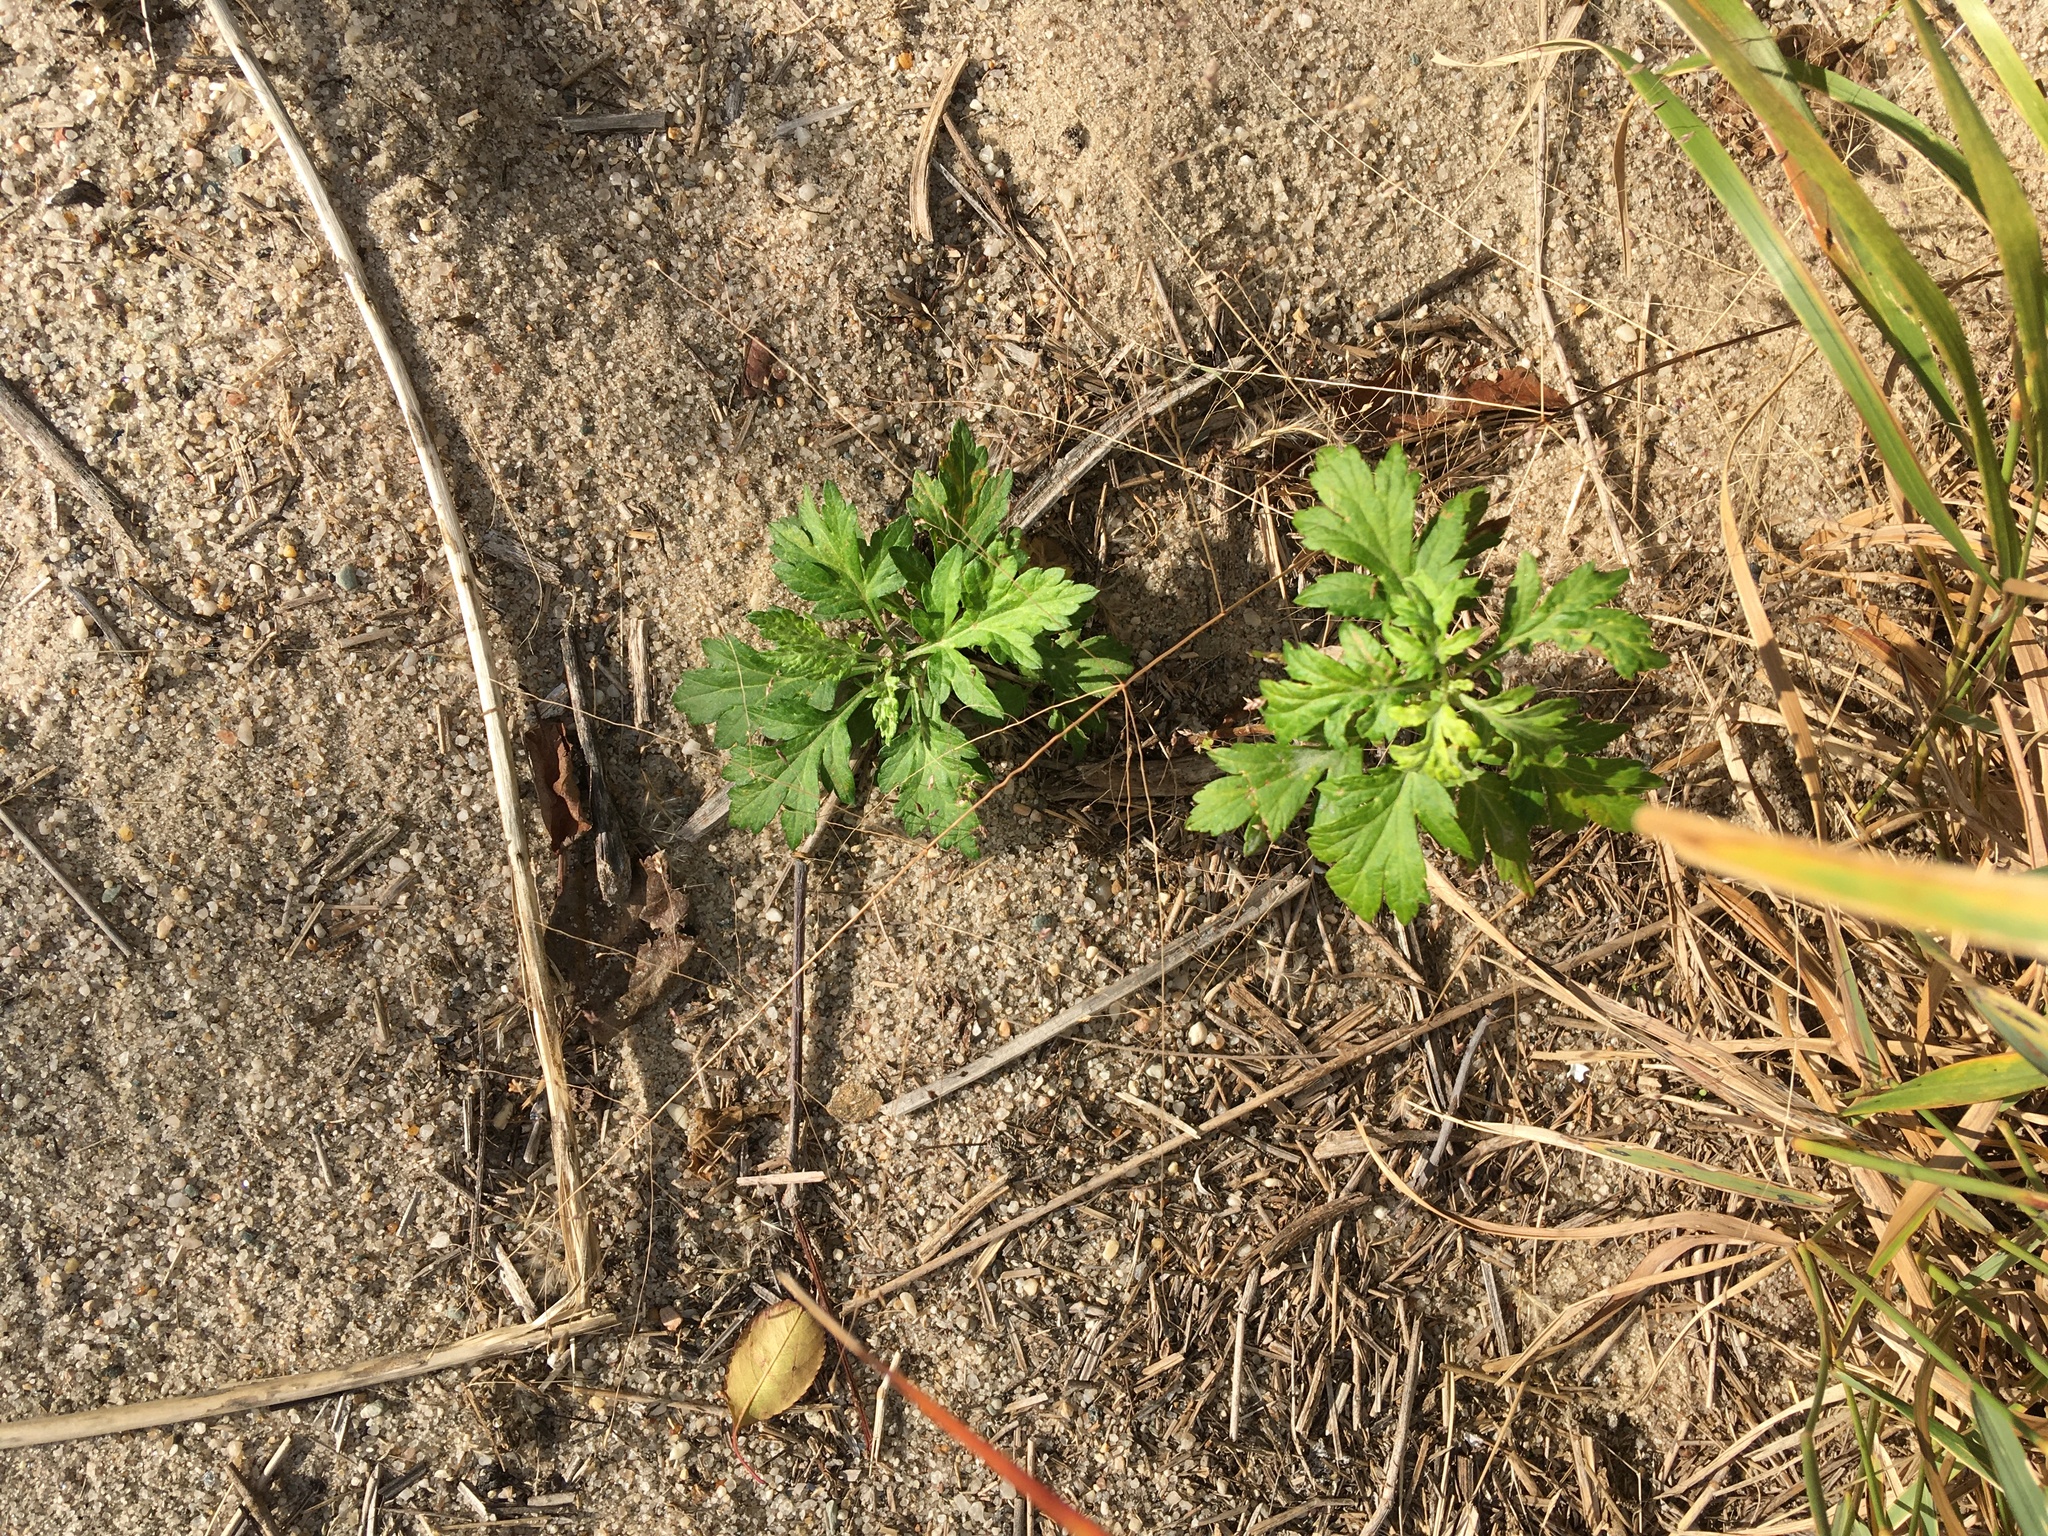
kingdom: Plantae
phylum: Tracheophyta
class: Magnoliopsida
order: Asterales
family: Asteraceae
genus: Artemisia
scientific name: Artemisia vulgaris
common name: Mugwort
